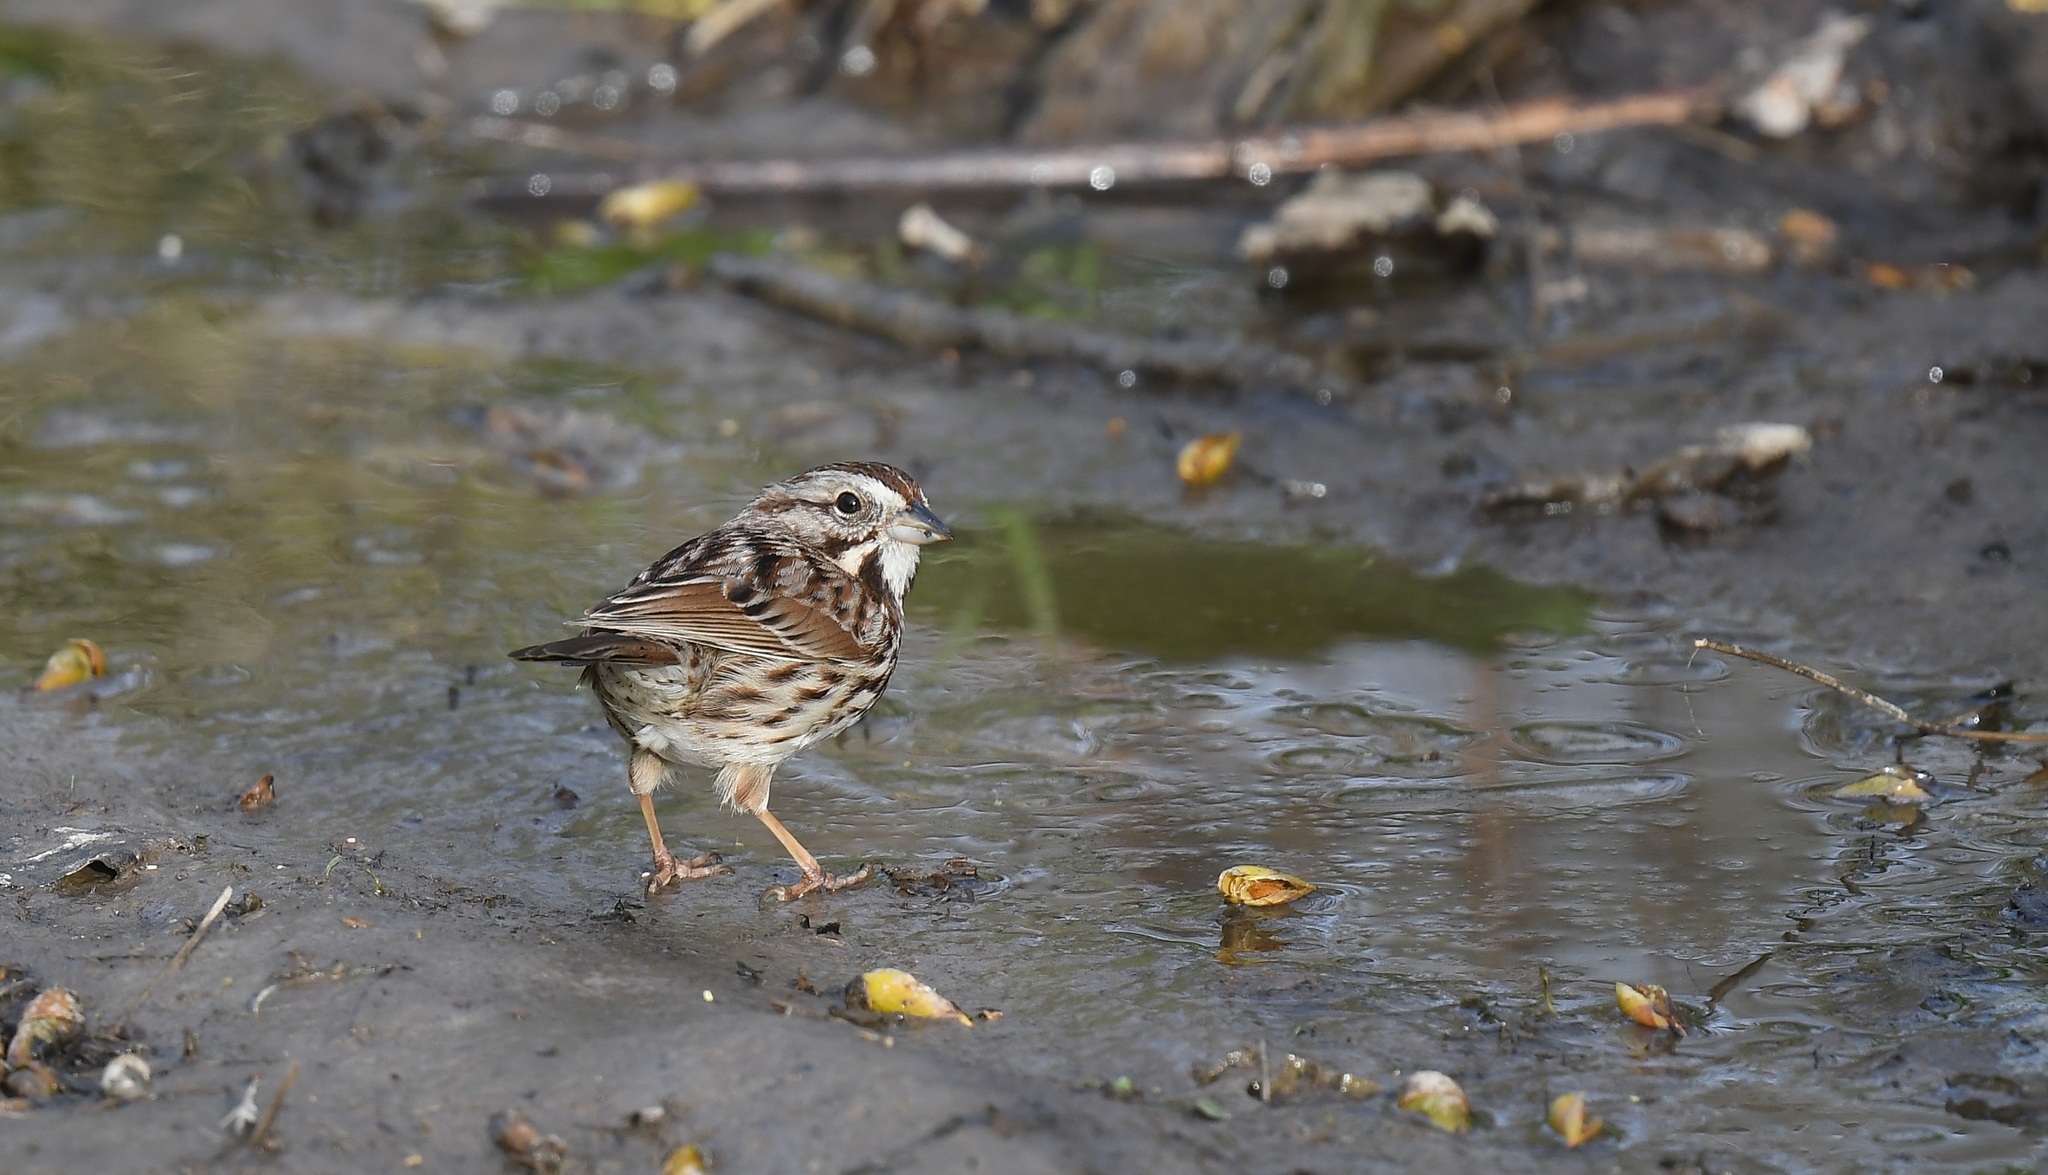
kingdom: Animalia
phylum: Chordata
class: Aves
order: Passeriformes
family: Passerellidae
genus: Melospiza
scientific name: Melospiza melodia
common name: Song sparrow
